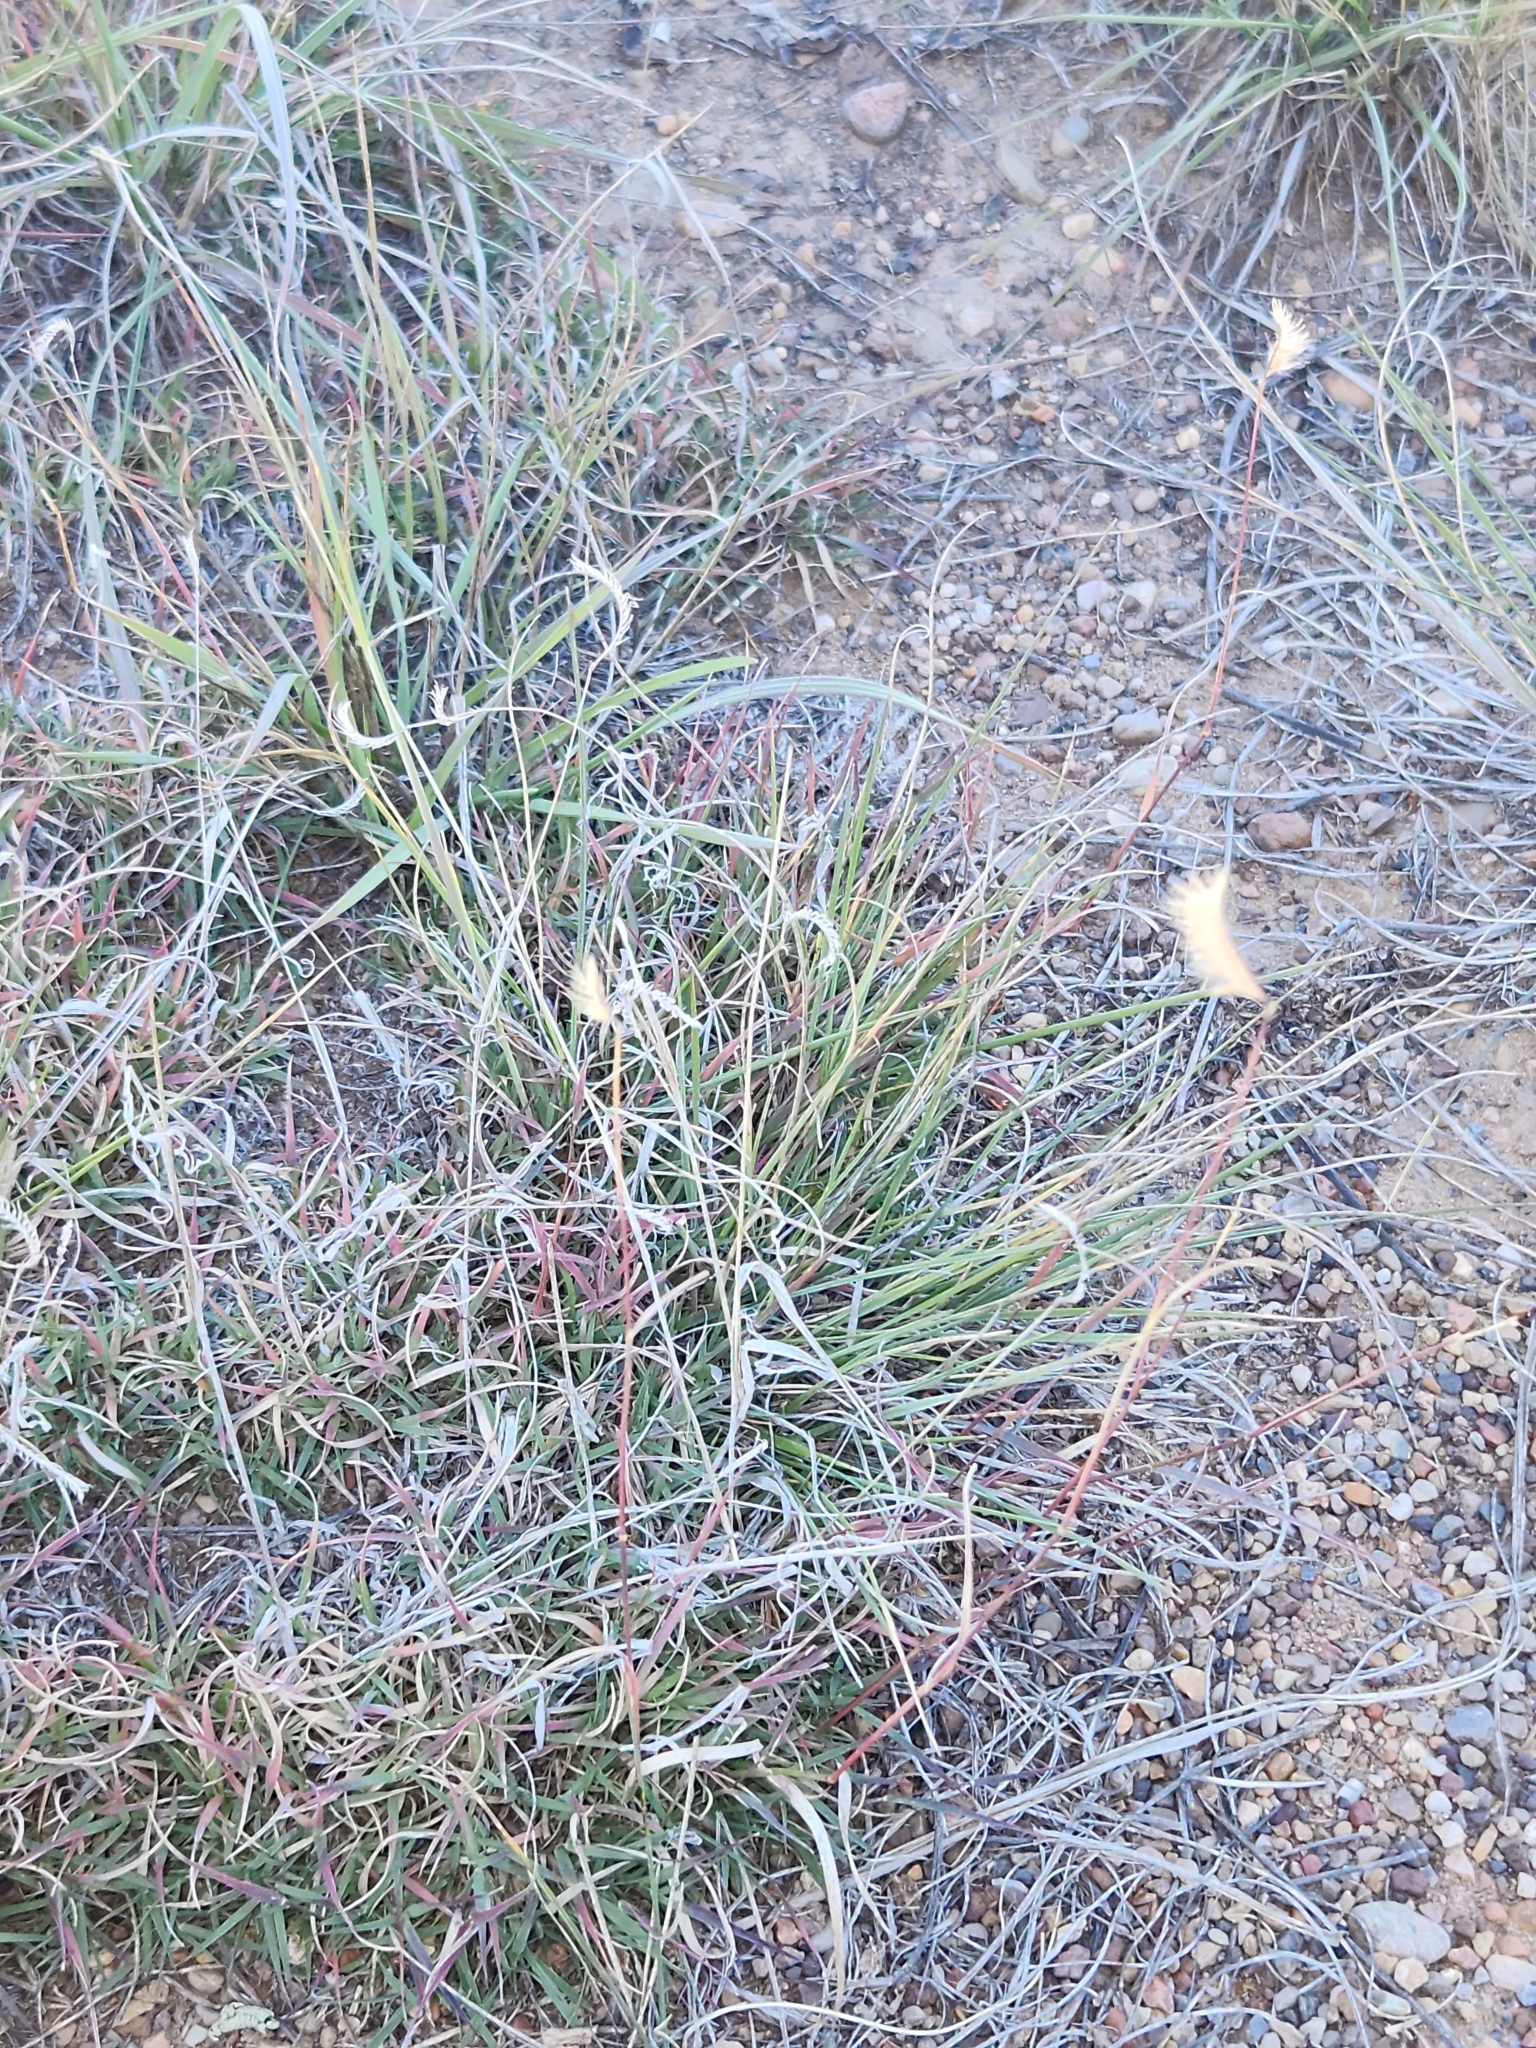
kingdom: Plantae
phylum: Tracheophyta
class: Liliopsida
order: Poales
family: Poaceae
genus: Bouteloua
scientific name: Bouteloua gracilis
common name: Blue grama
